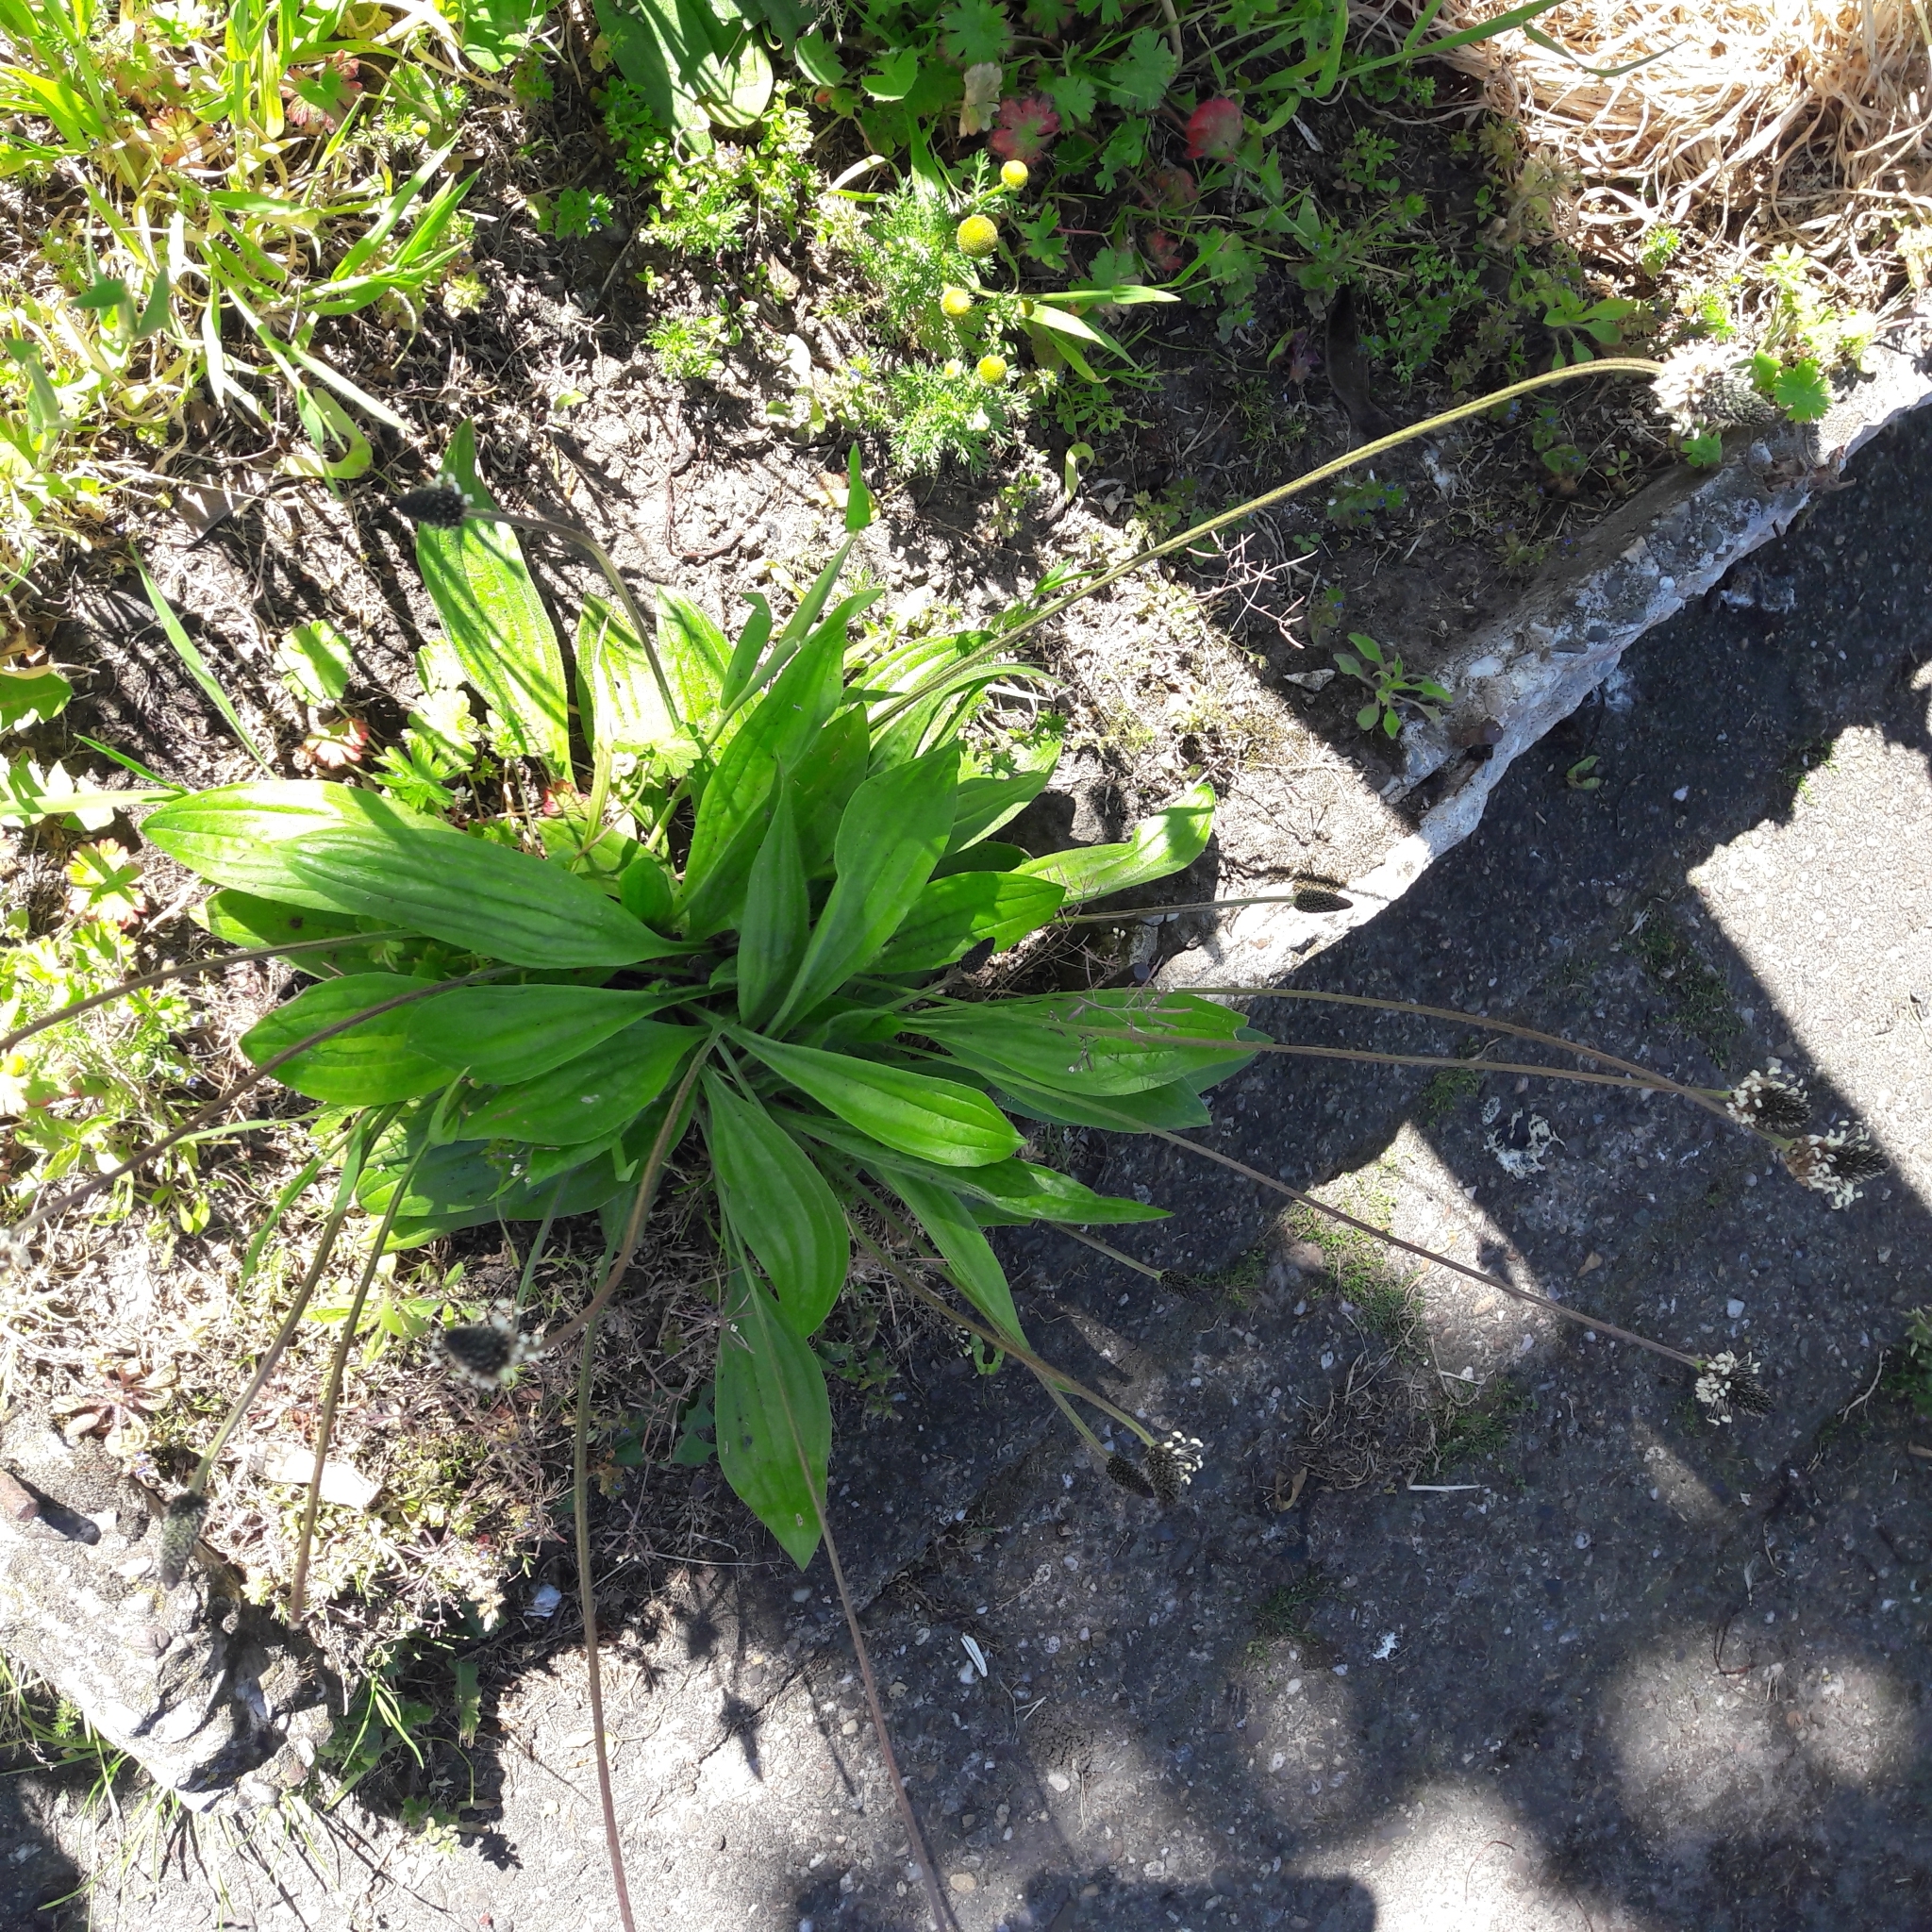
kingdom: Plantae
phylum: Tracheophyta
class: Magnoliopsida
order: Lamiales
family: Plantaginaceae
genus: Plantago
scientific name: Plantago lanceolata
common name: Ribwort plantain
